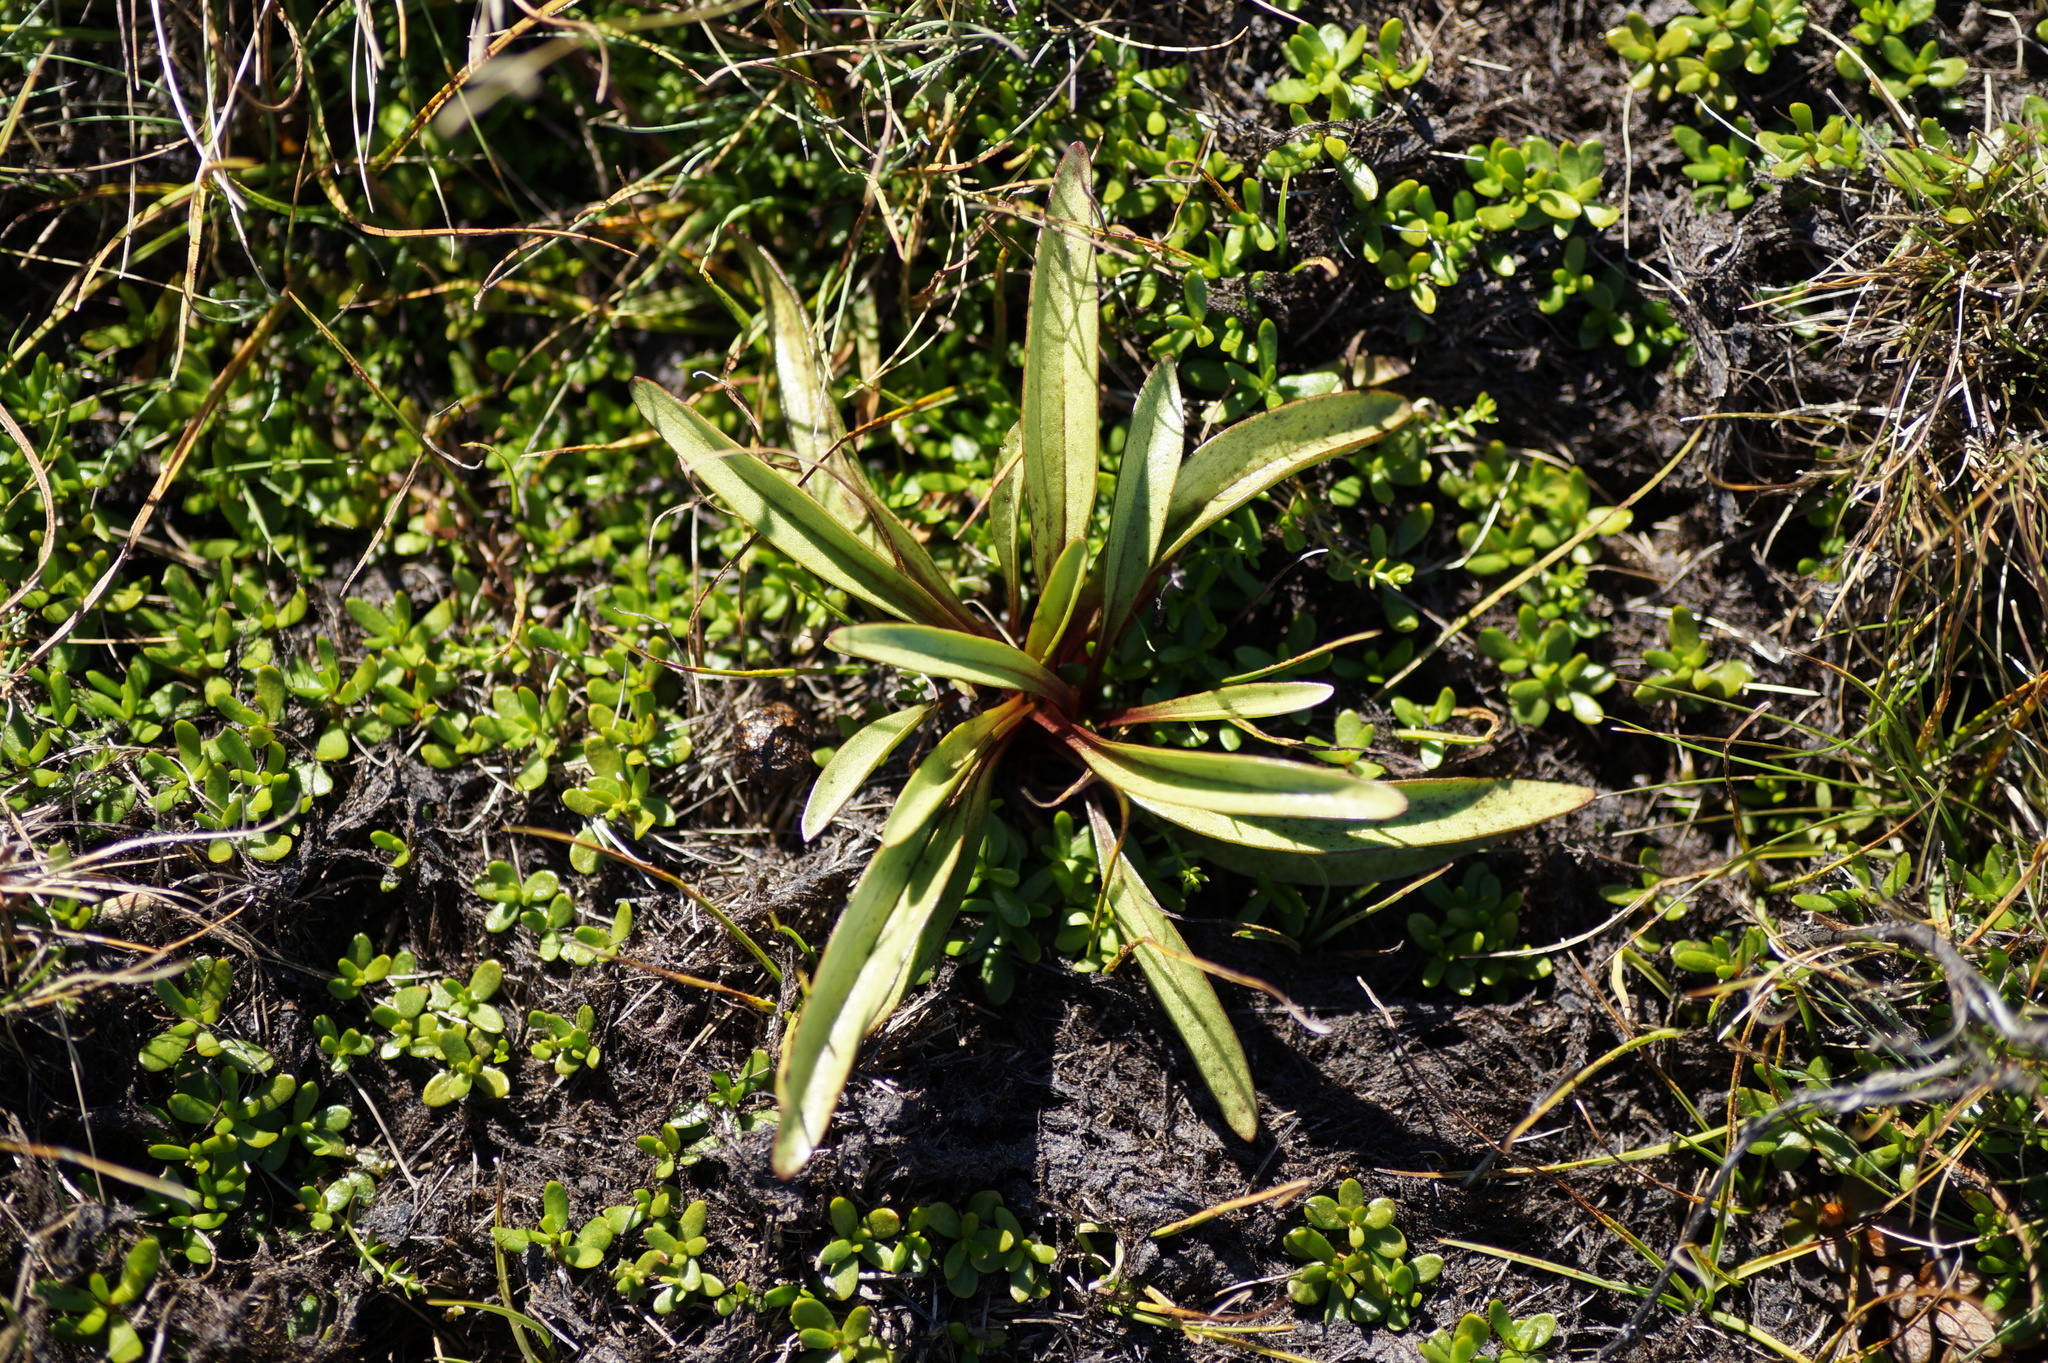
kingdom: Plantae
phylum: Tracheophyta
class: Magnoliopsida
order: Gentianales
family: Gentianaceae
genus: Gentianella
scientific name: Gentianella corymbifera
